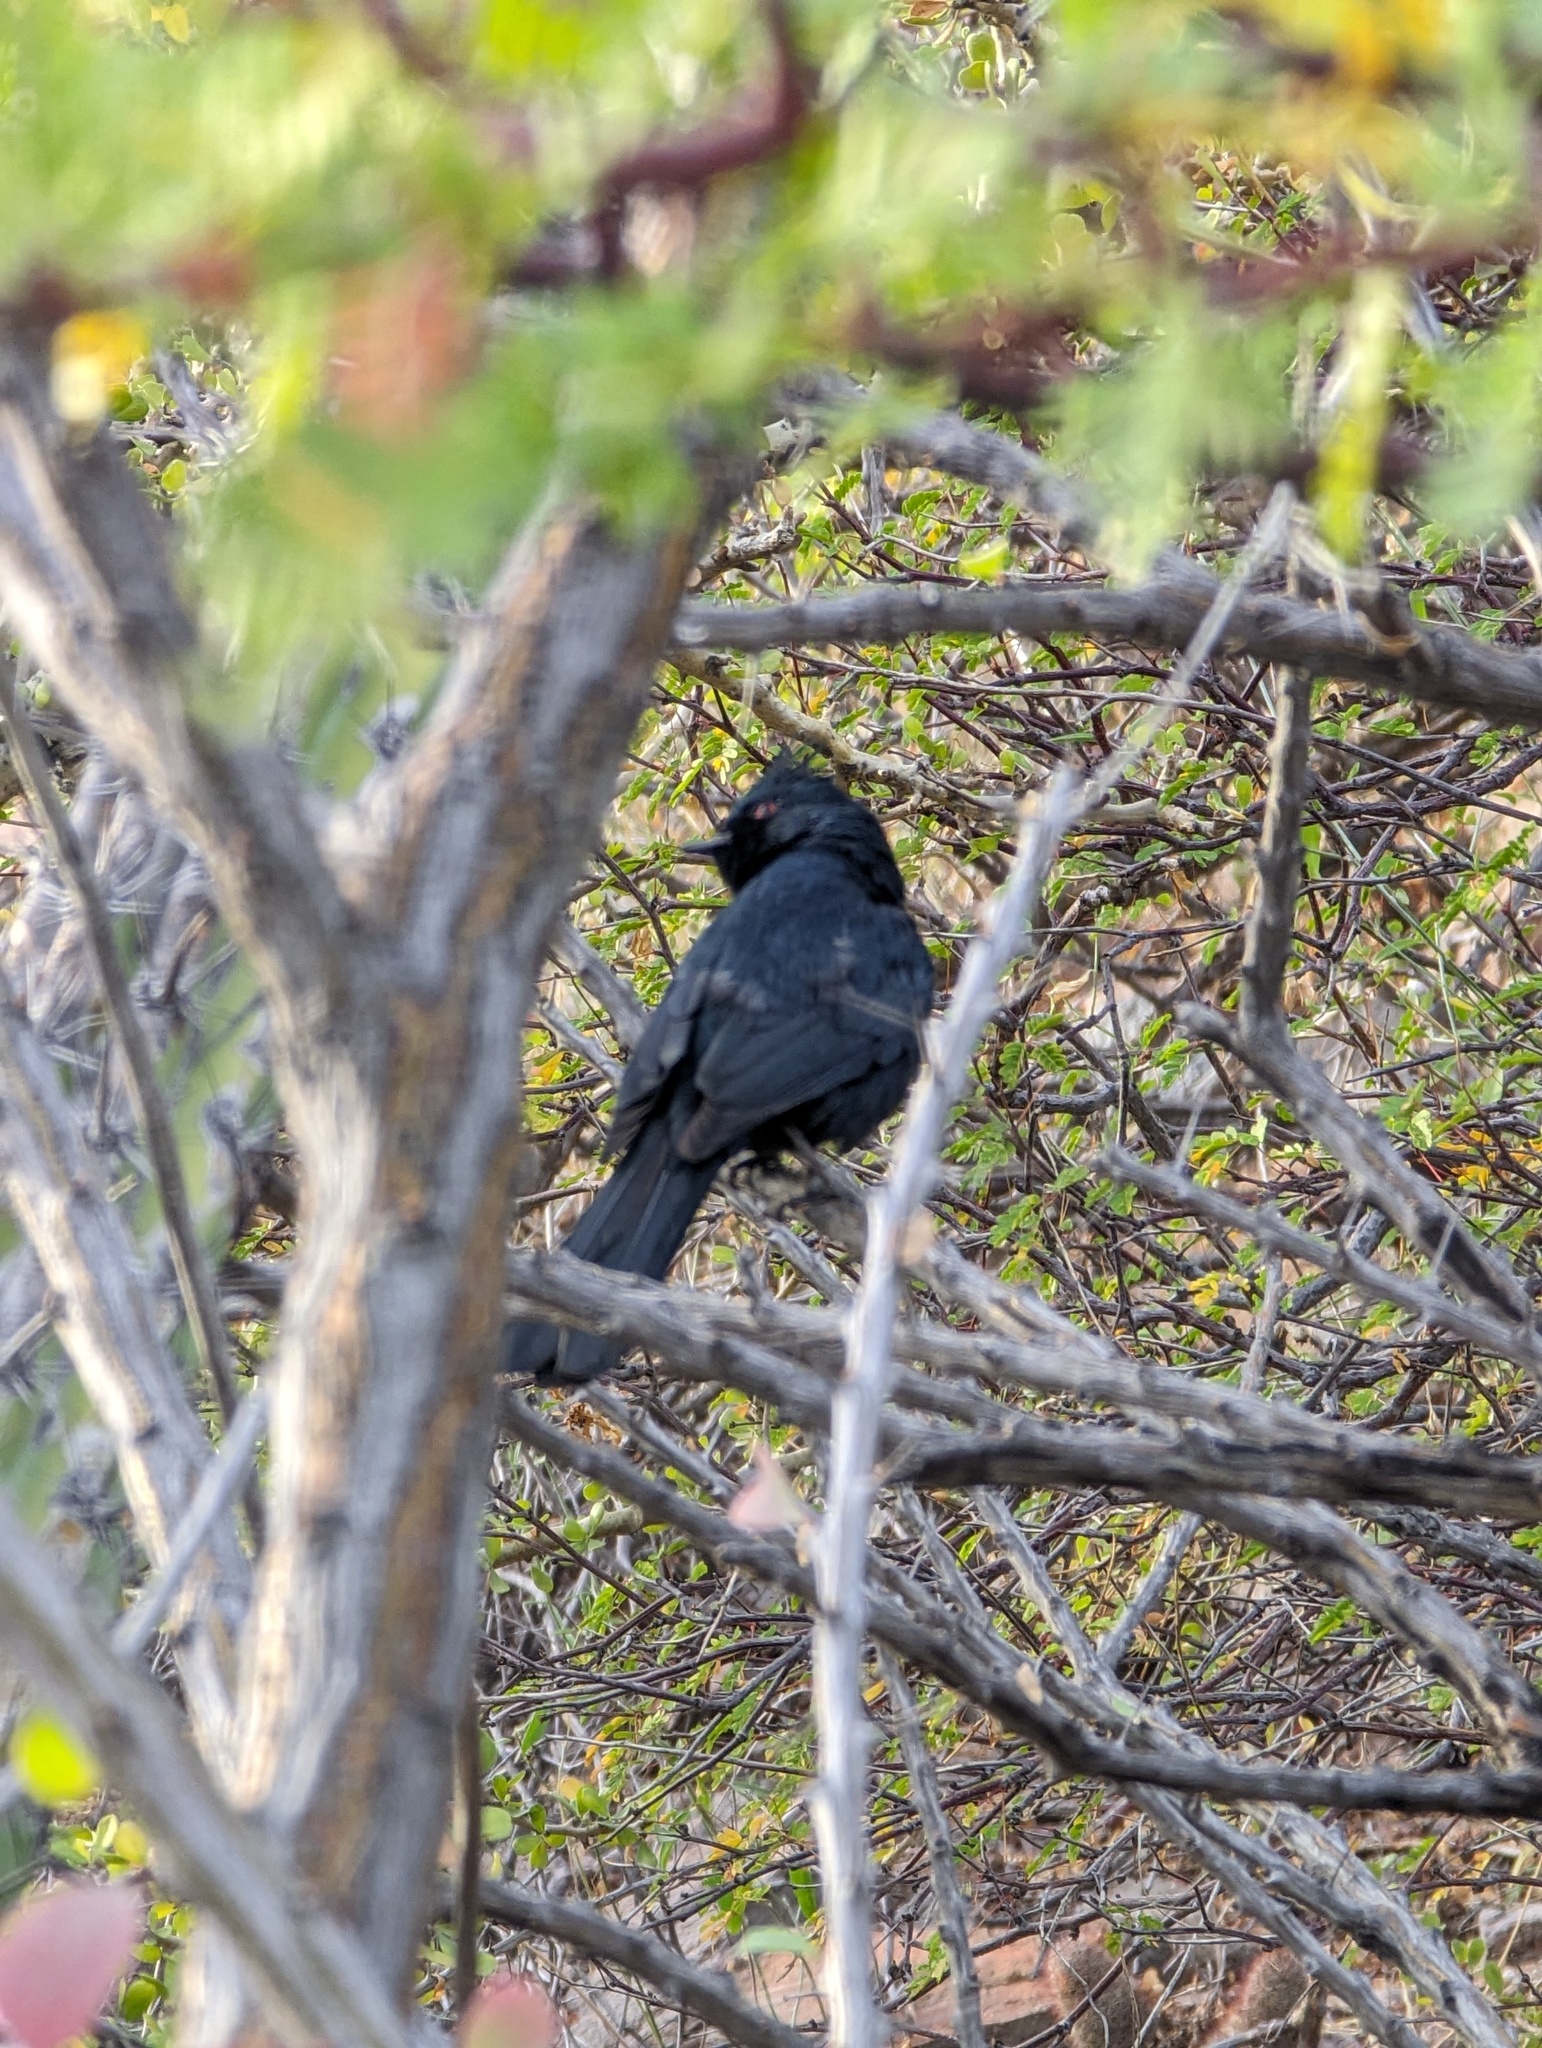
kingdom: Animalia
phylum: Chordata
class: Aves
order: Passeriformes
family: Ptilogonatidae
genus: Phainopepla
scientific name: Phainopepla nitens
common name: Phainopepla
